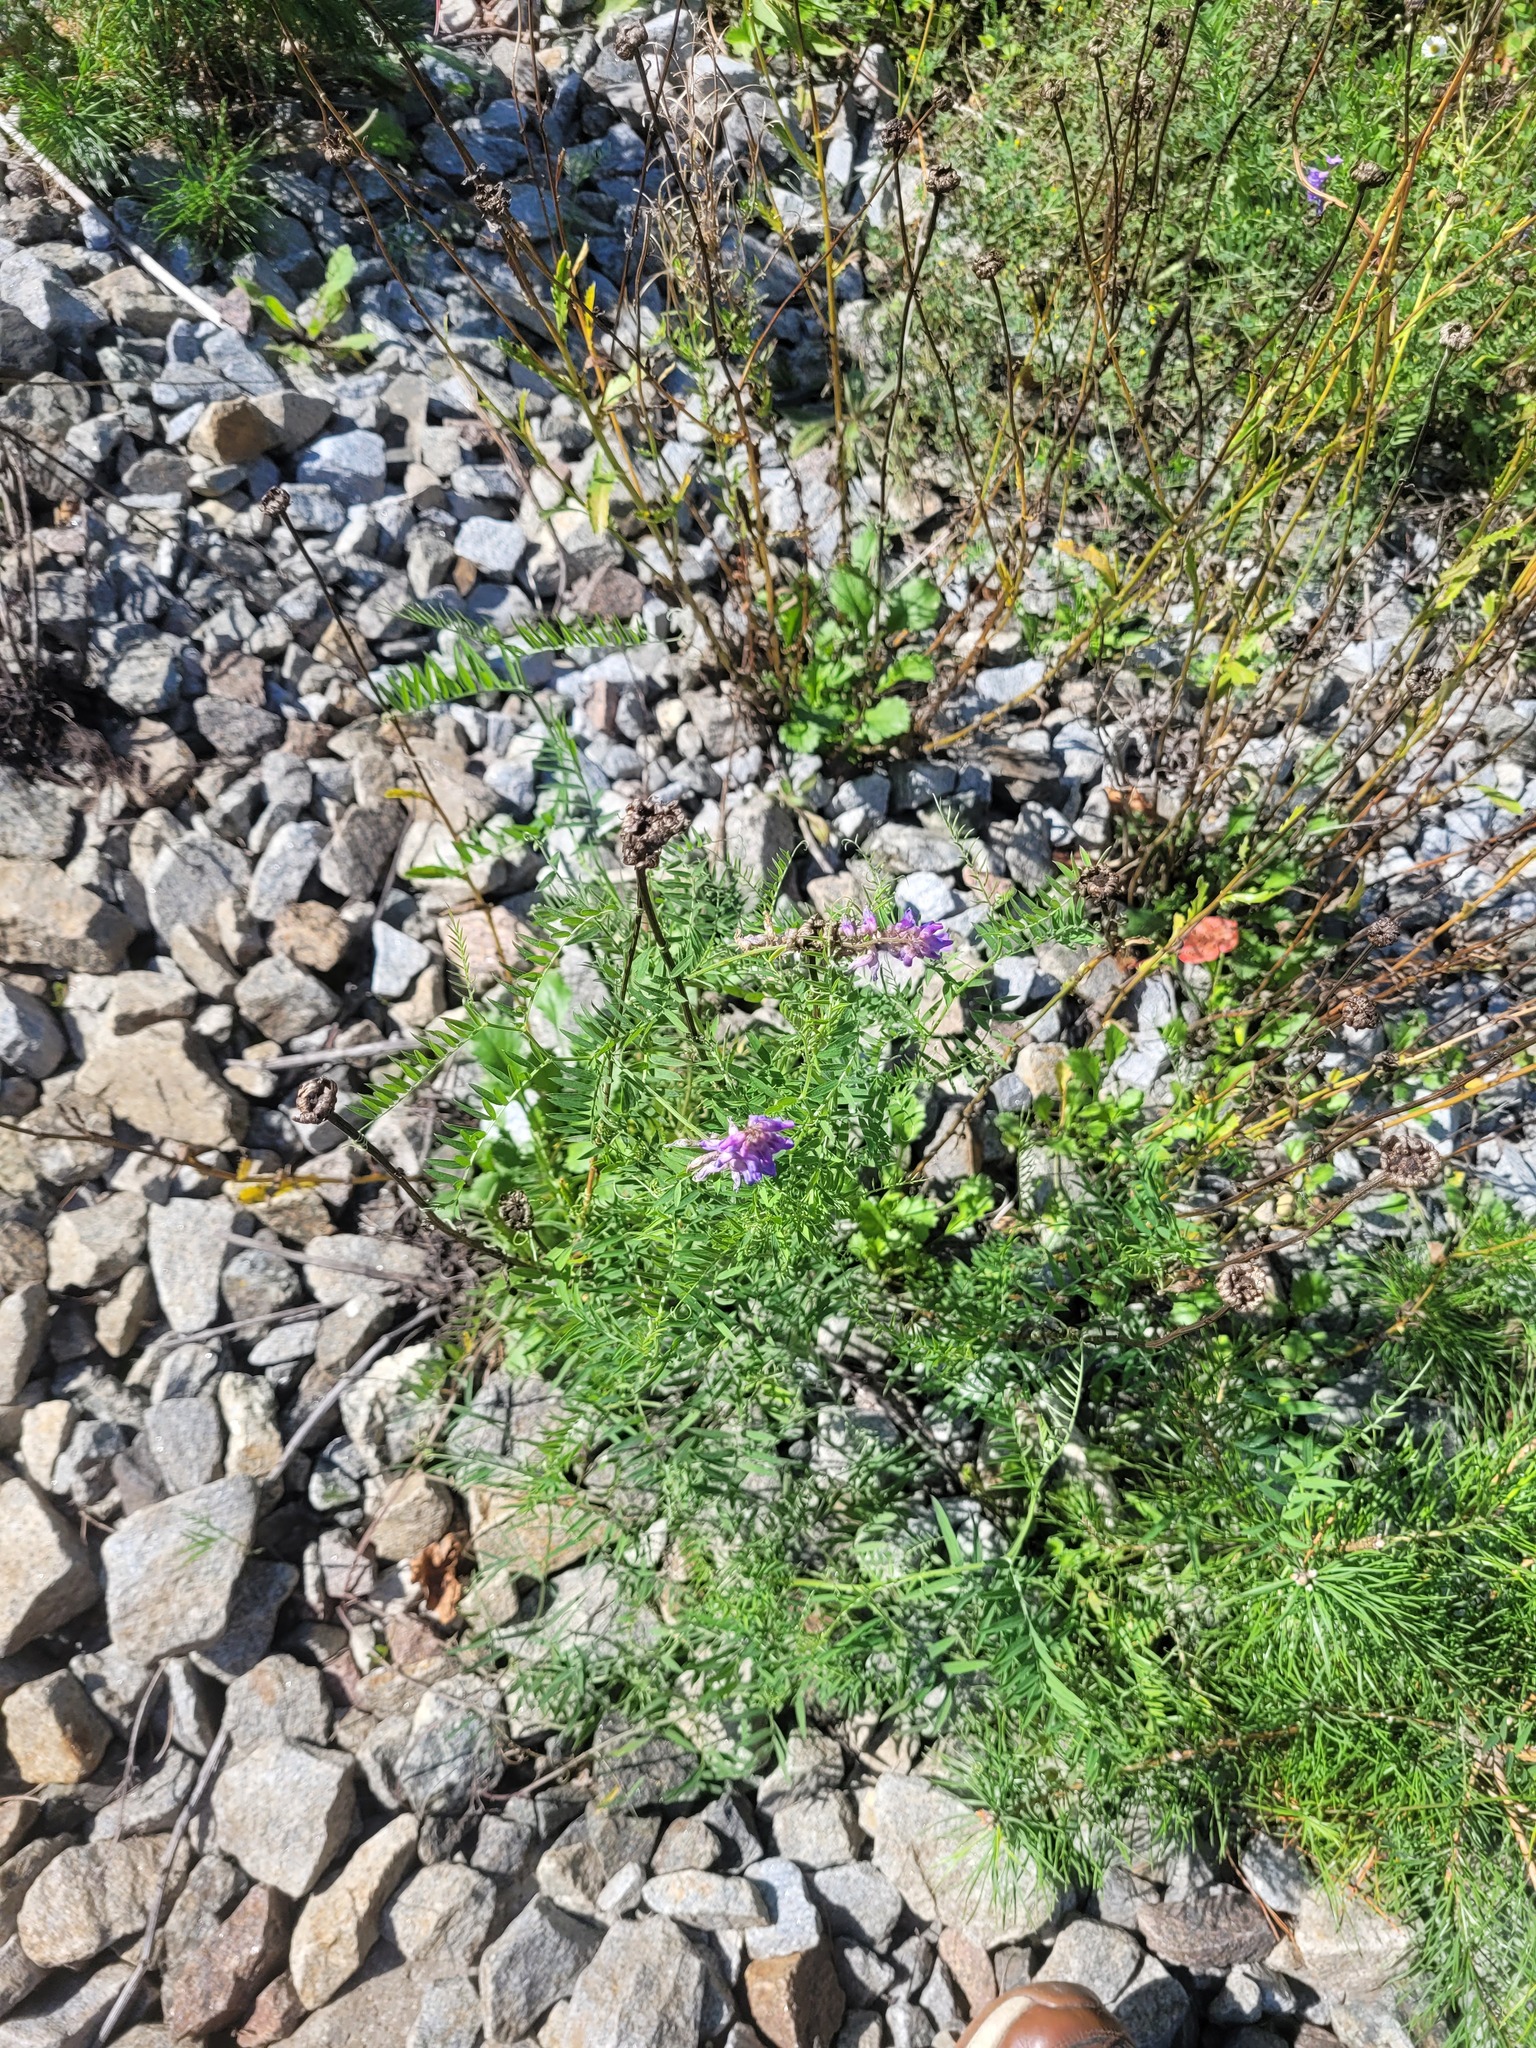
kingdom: Plantae
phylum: Tracheophyta
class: Magnoliopsida
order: Fabales
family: Fabaceae
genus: Vicia
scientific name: Vicia cracca
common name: Bird vetch
